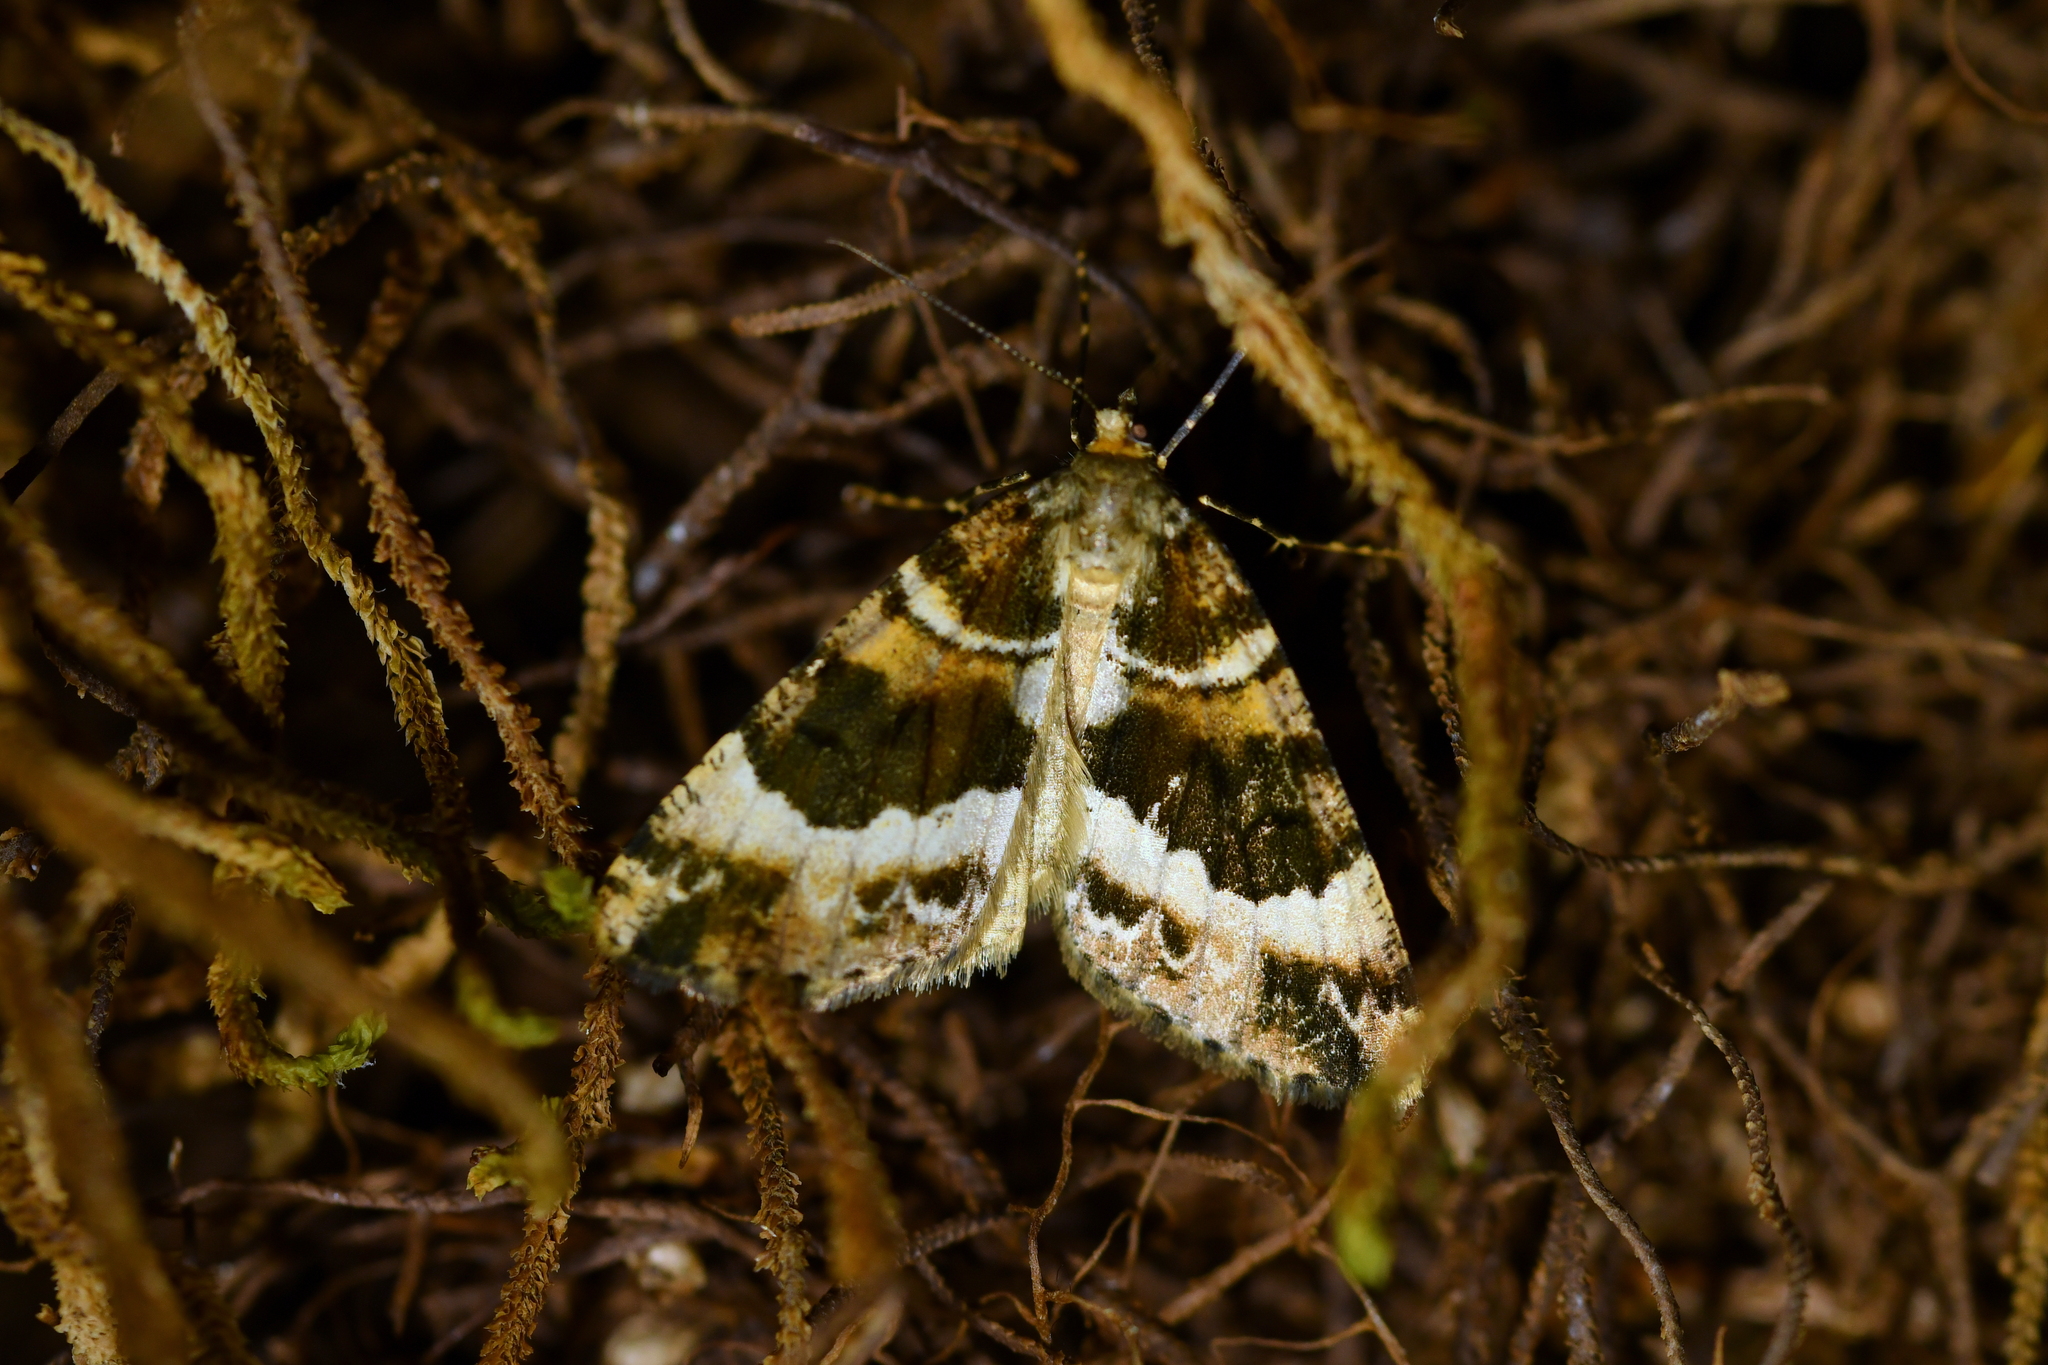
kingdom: Animalia
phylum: Arthropoda
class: Insecta
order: Lepidoptera
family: Geometridae
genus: Pseudocoremia
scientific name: Pseudocoremia productata
